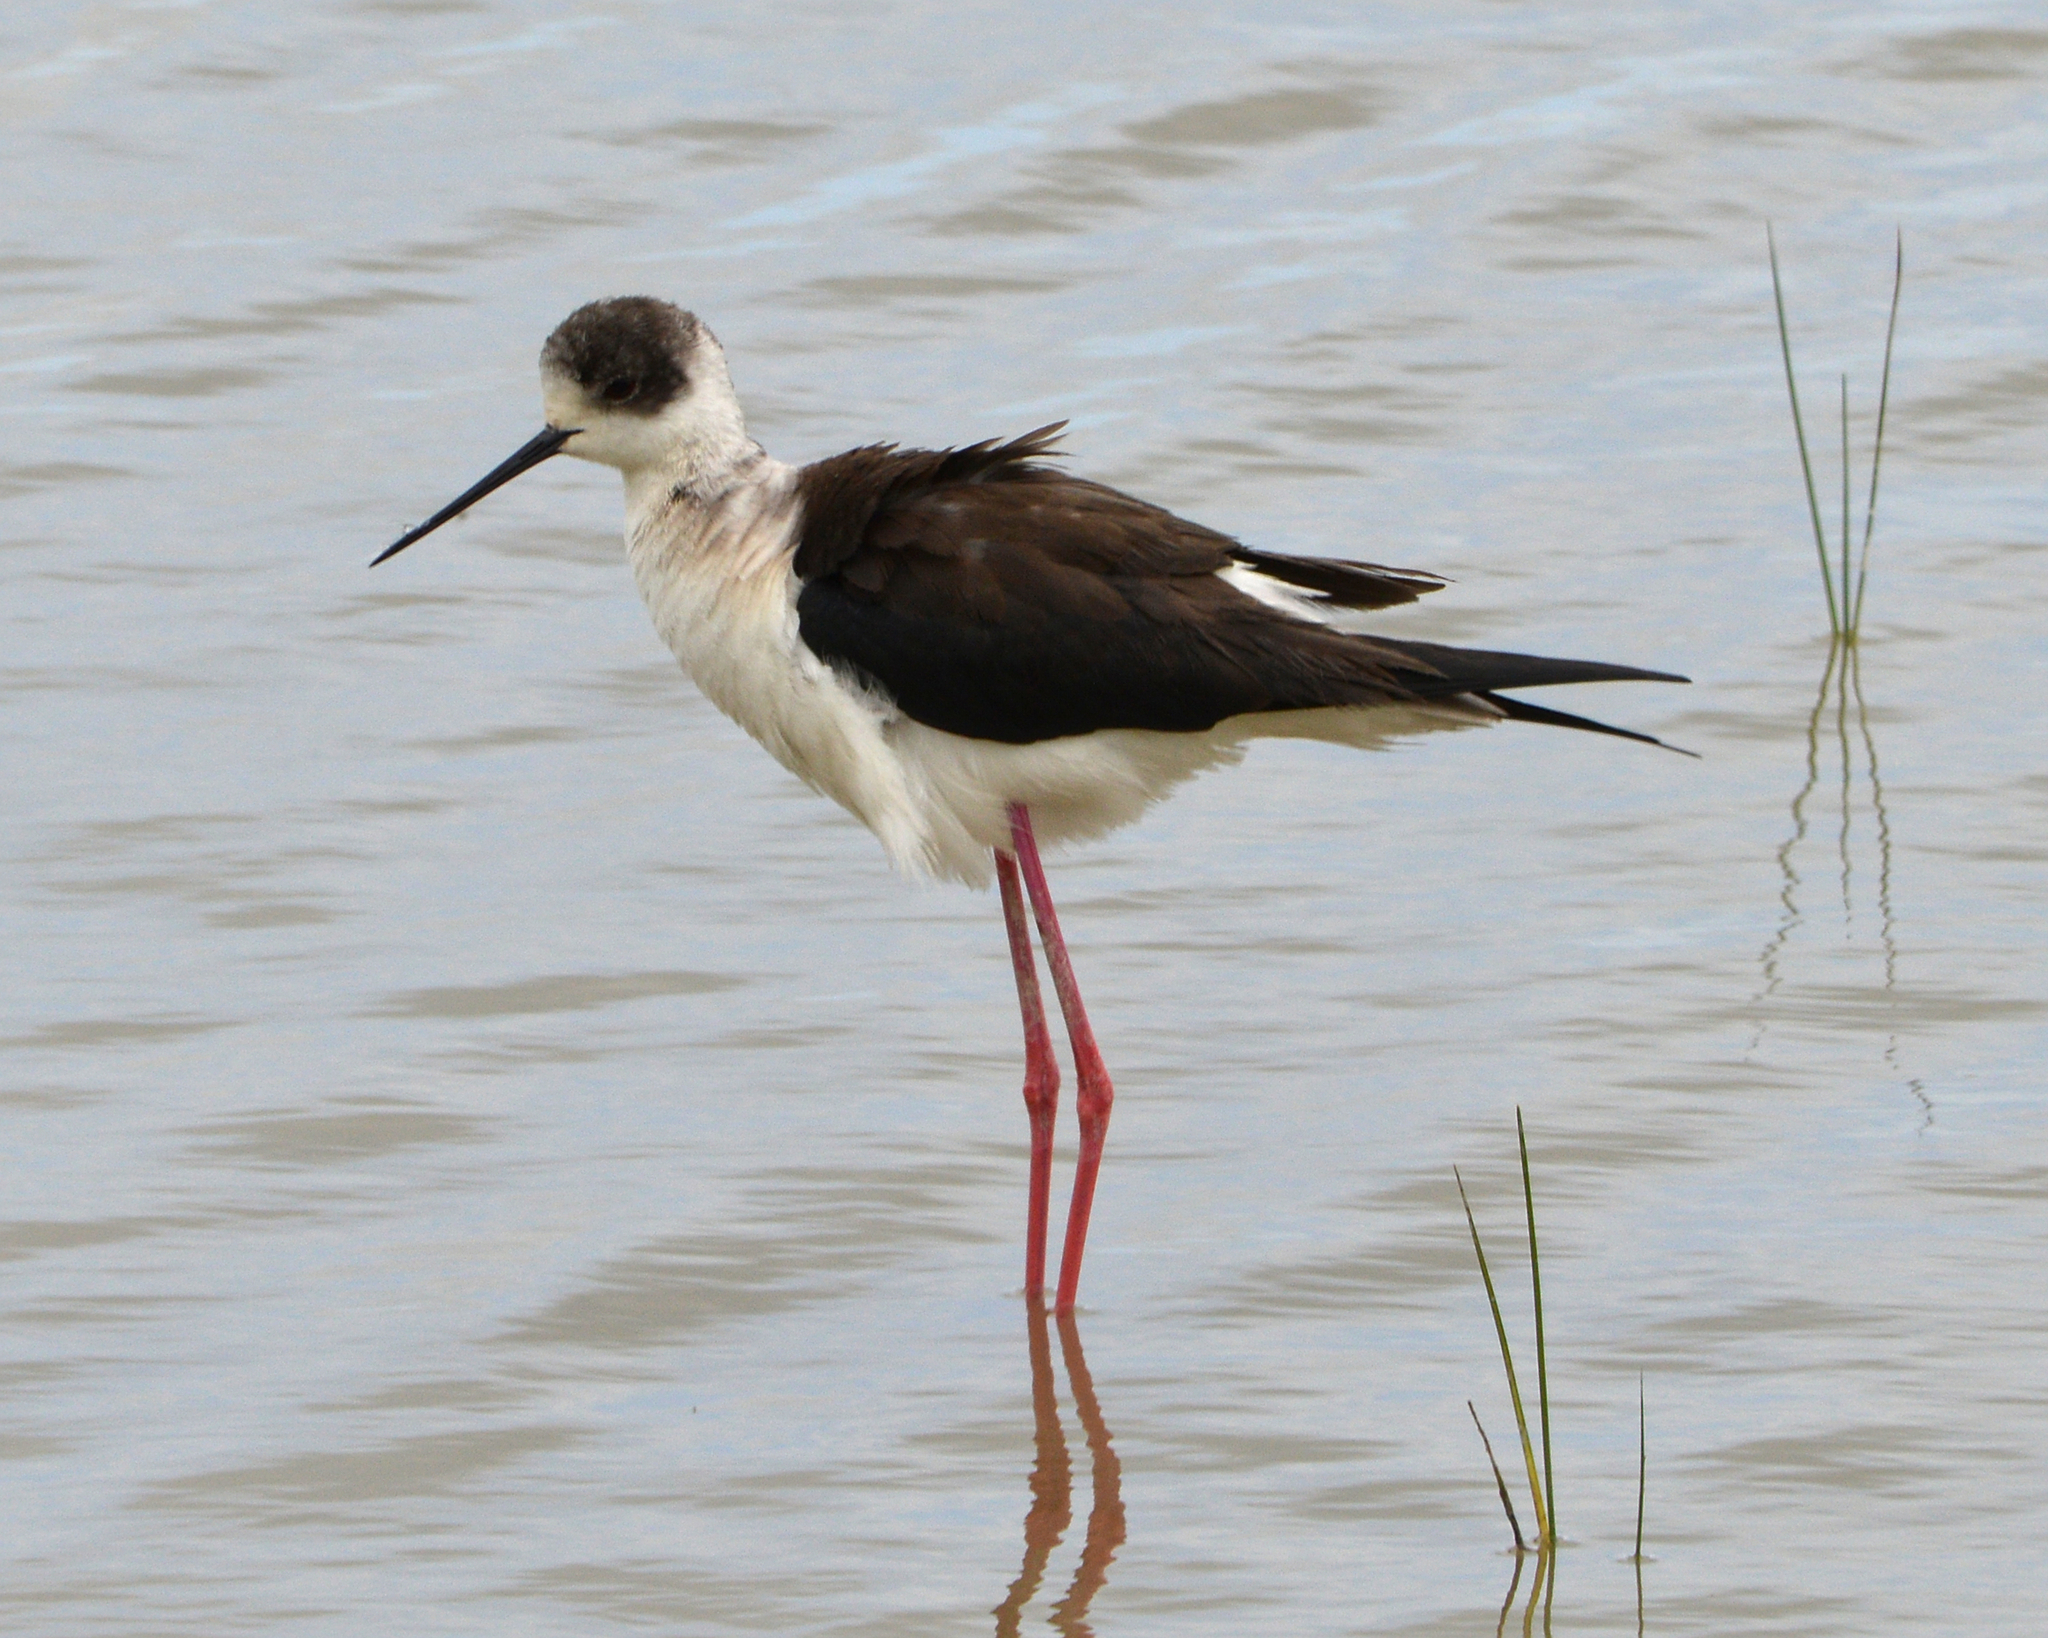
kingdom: Animalia
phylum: Chordata
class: Aves
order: Charadriiformes
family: Recurvirostridae
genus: Himantopus
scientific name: Himantopus himantopus
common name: Black-winged stilt
